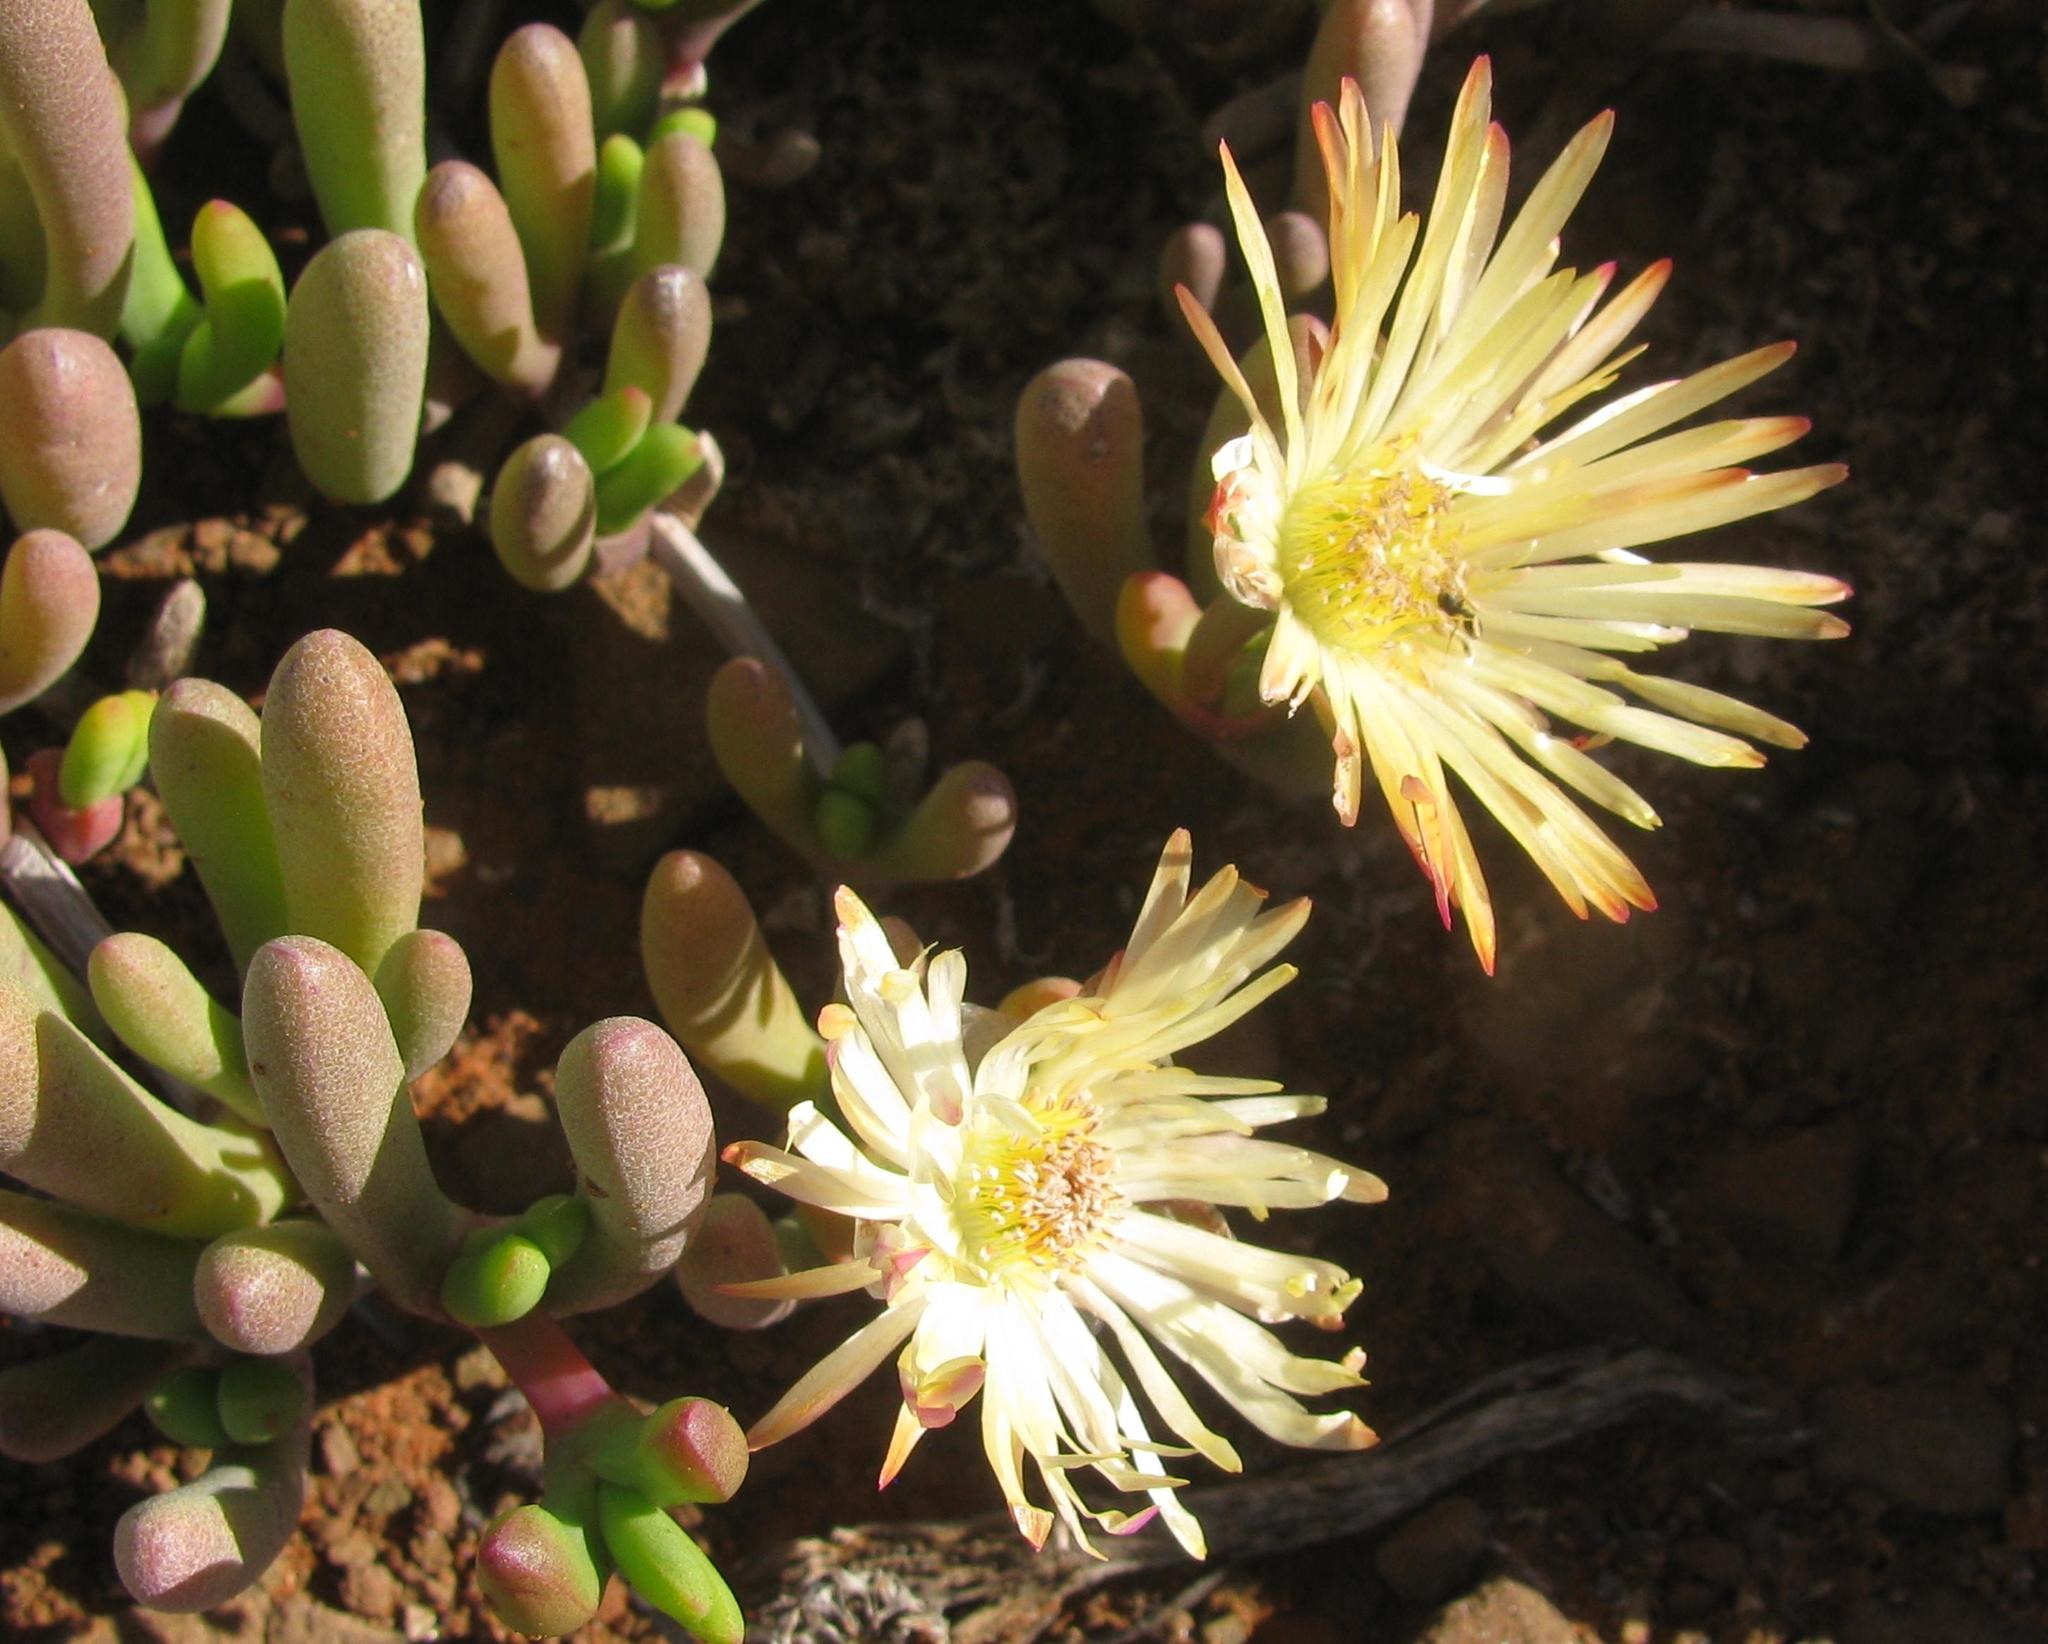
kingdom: Plantae
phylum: Tracheophyta
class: Magnoliopsida
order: Caryophyllales
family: Aizoaceae
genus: Cephalophyllum
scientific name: Cephalophyllum framesii
